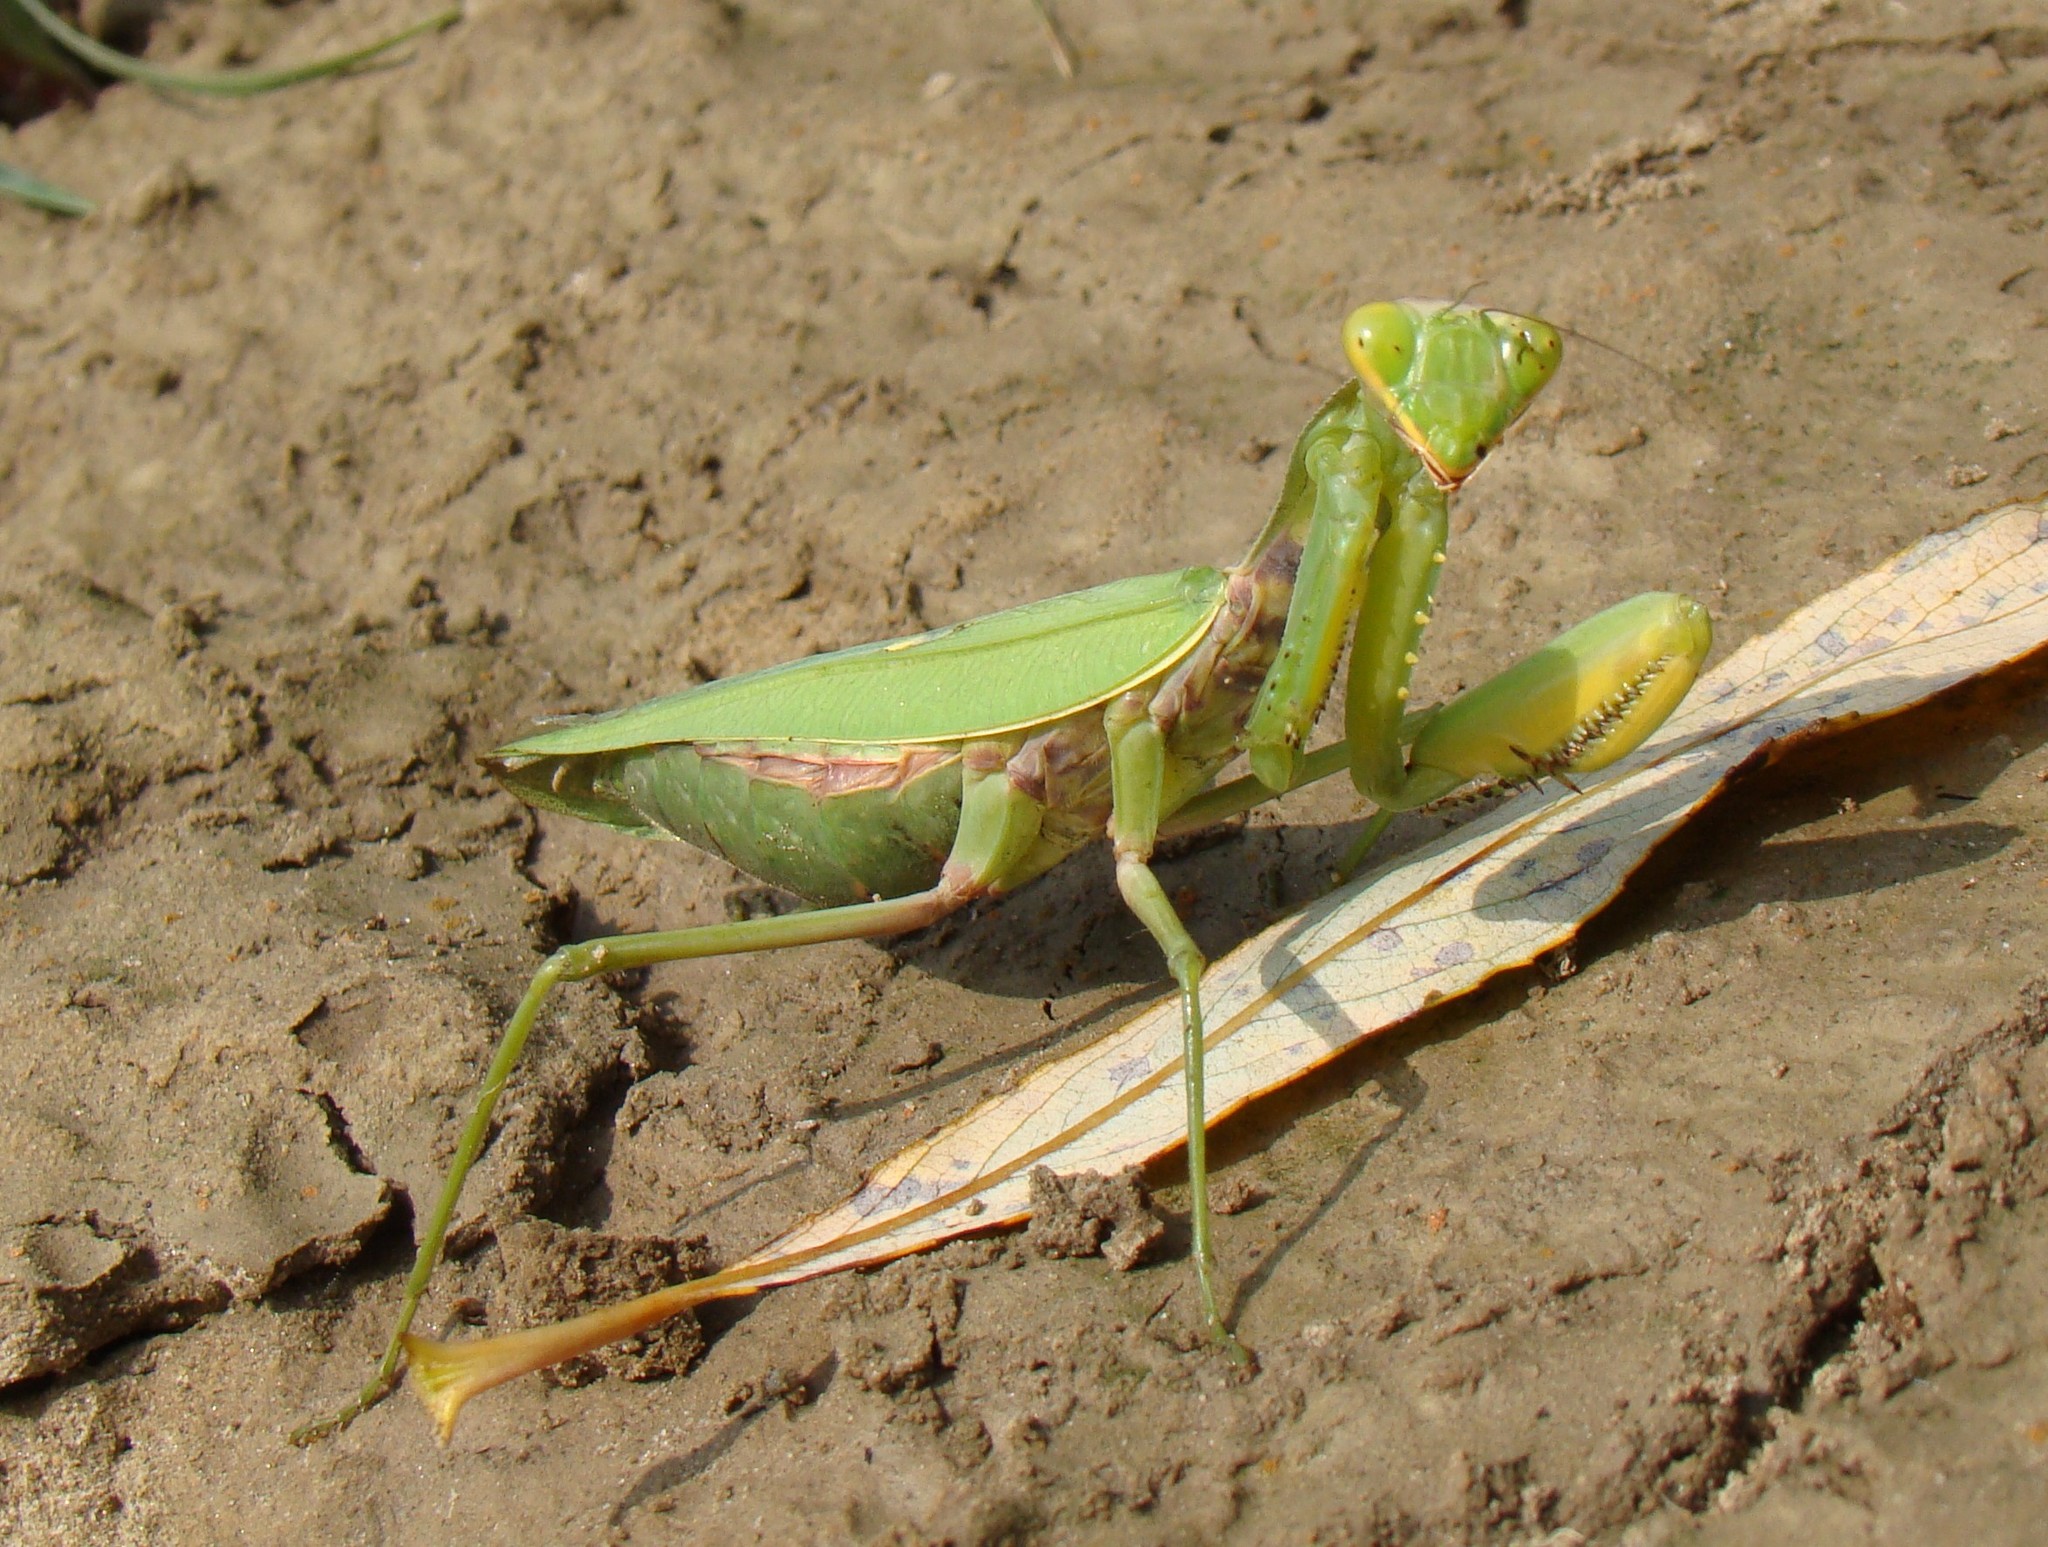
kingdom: Animalia
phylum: Arthropoda
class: Insecta
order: Mantodea
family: Mantidae
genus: Hierodula
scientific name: Hierodula transcaucasica
